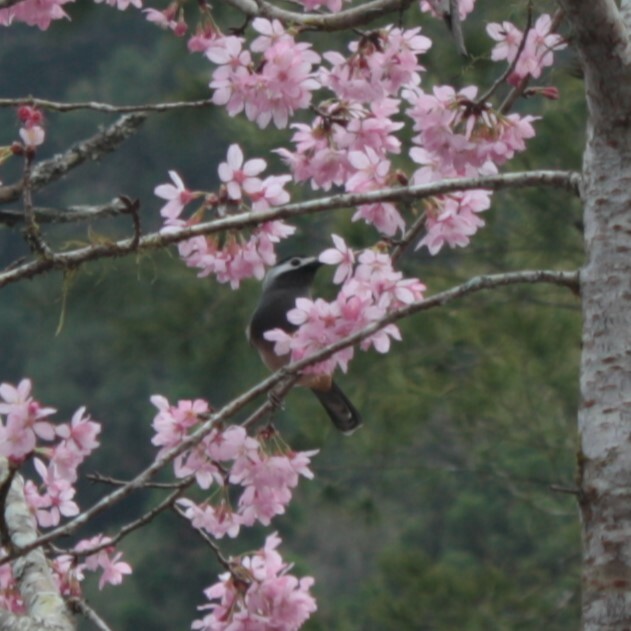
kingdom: Animalia
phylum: Chordata
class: Aves
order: Passeriformes
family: Leiothrichidae
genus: Heterophasia
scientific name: Heterophasia auricularis
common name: White-eared sibia
